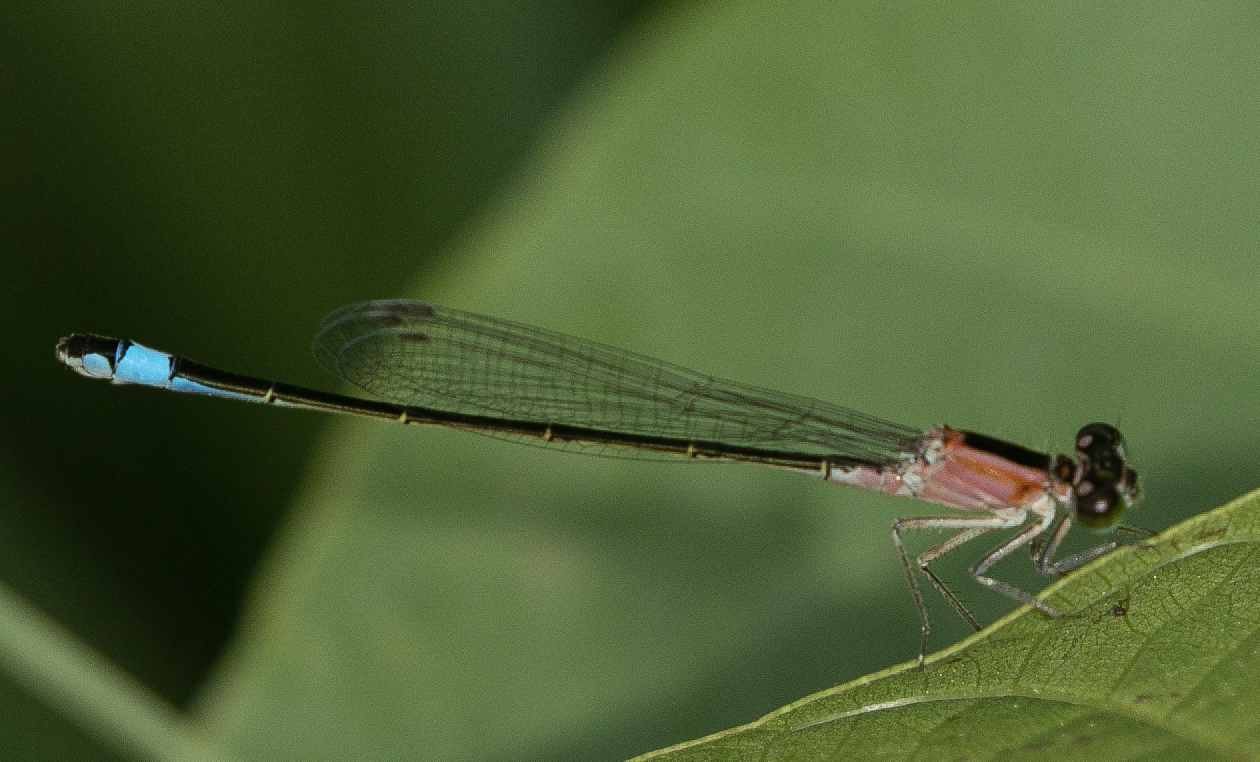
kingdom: Animalia
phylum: Arthropoda
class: Insecta
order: Odonata
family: Coenagrionidae
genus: Ischnura
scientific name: Ischnura elegans
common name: Blue-tailed damselfly
